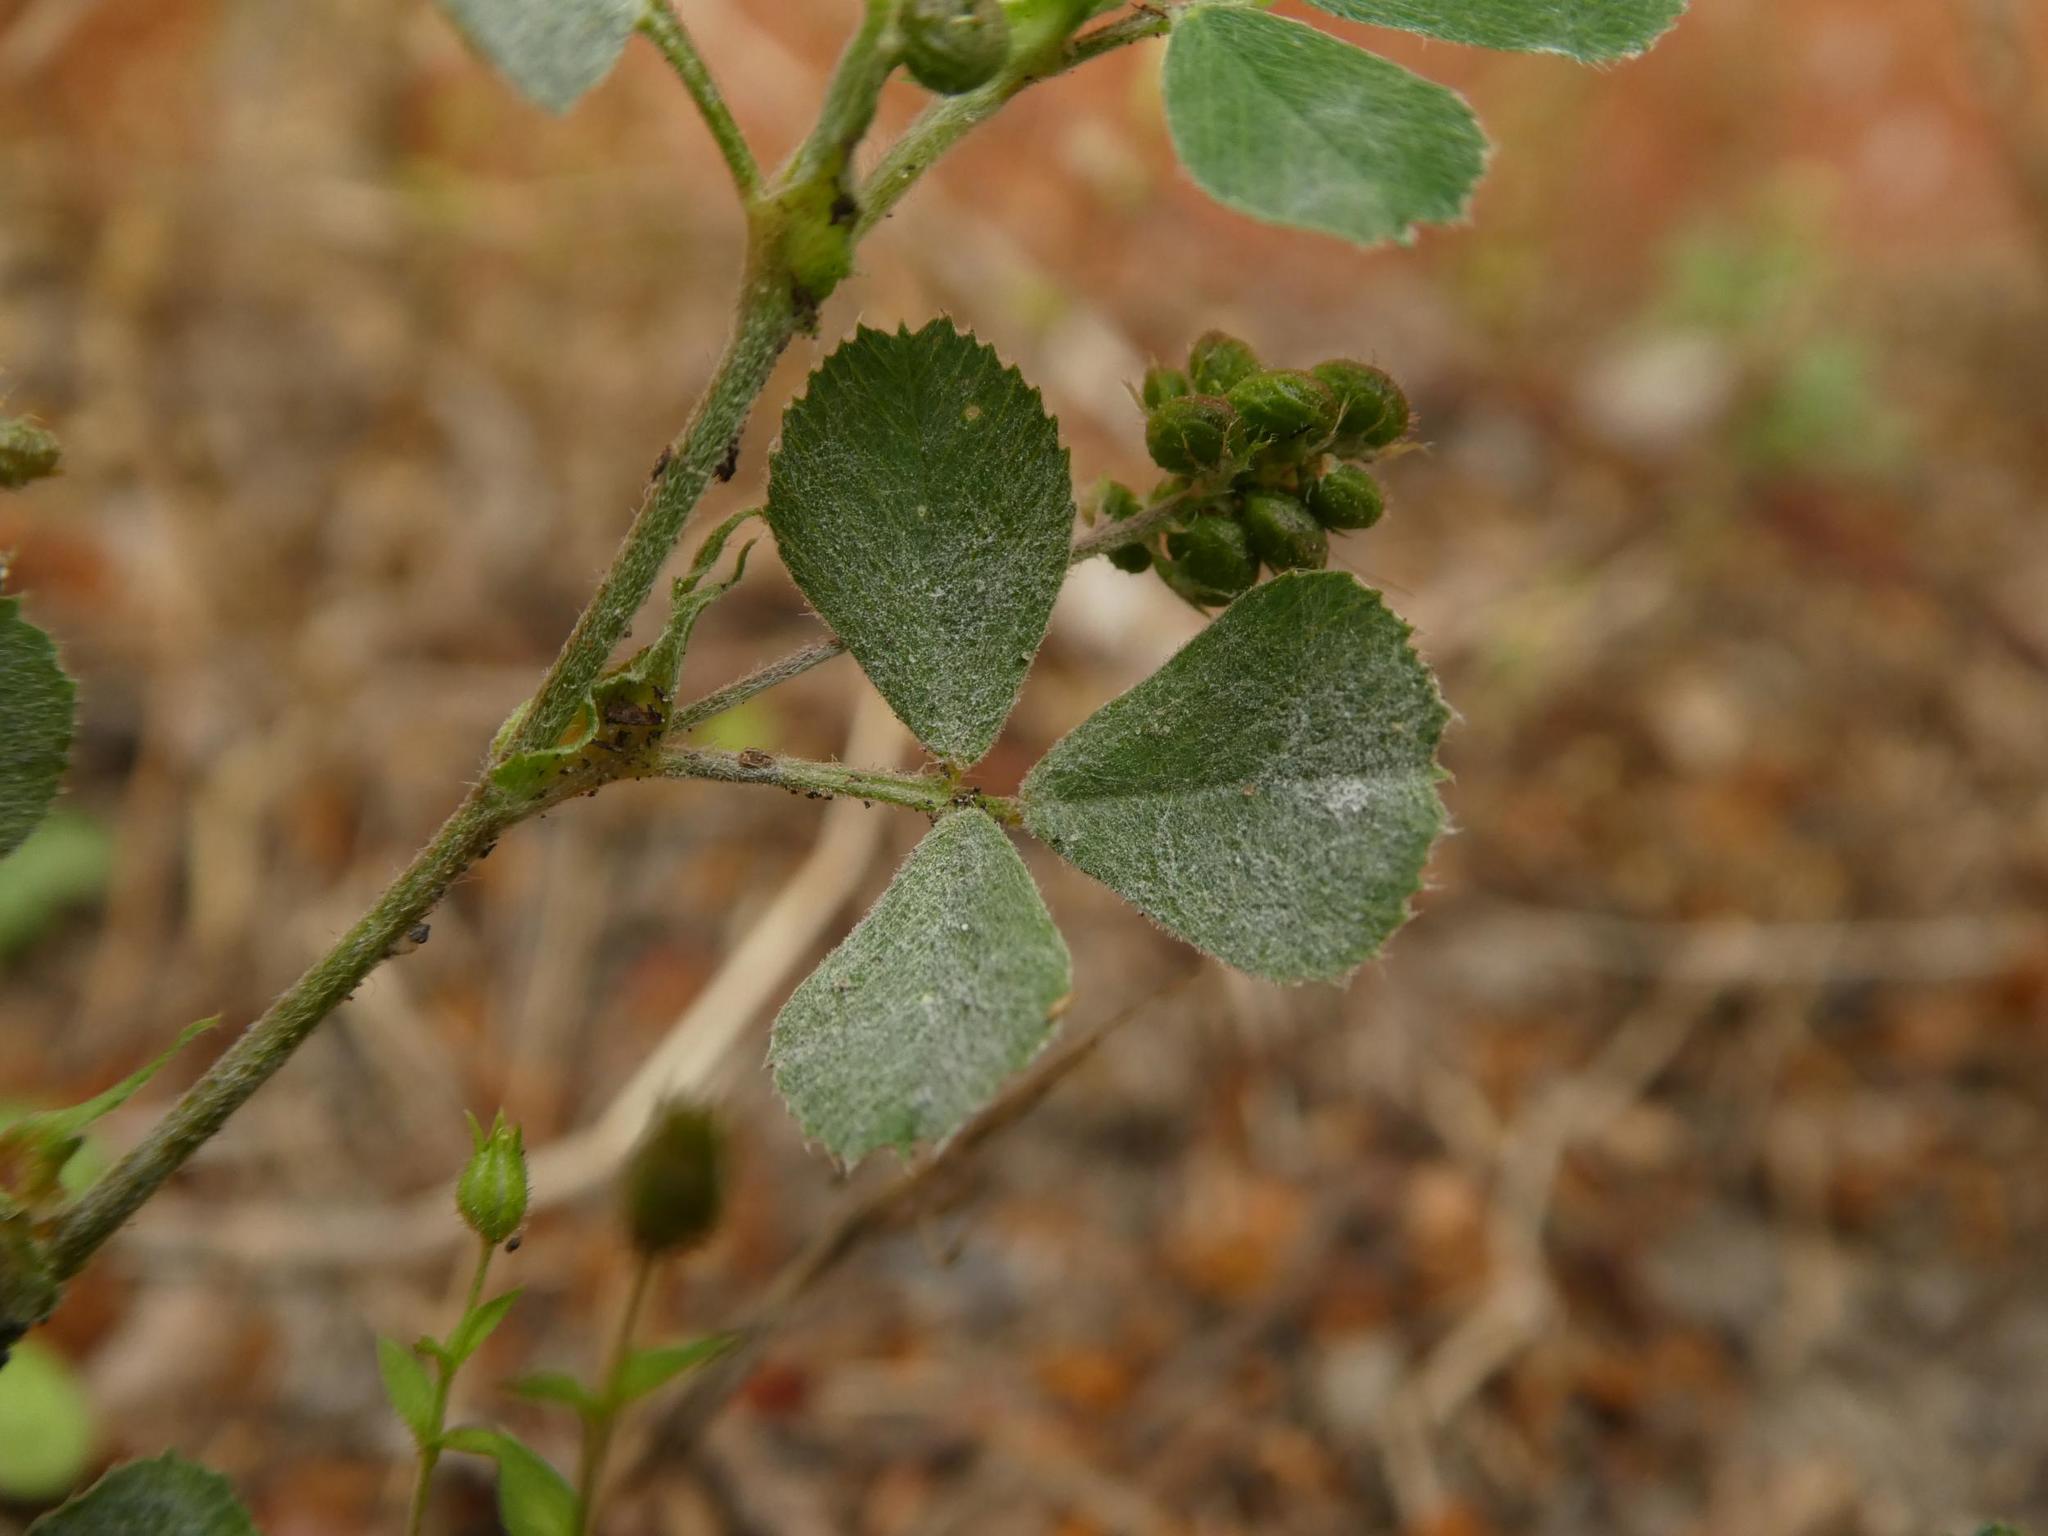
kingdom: Fungi
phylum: Ascomycota
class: Leotiomycetes
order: Helotiales
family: Erysiphaceae
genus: Erysiphe
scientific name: Erysiphe pisi
